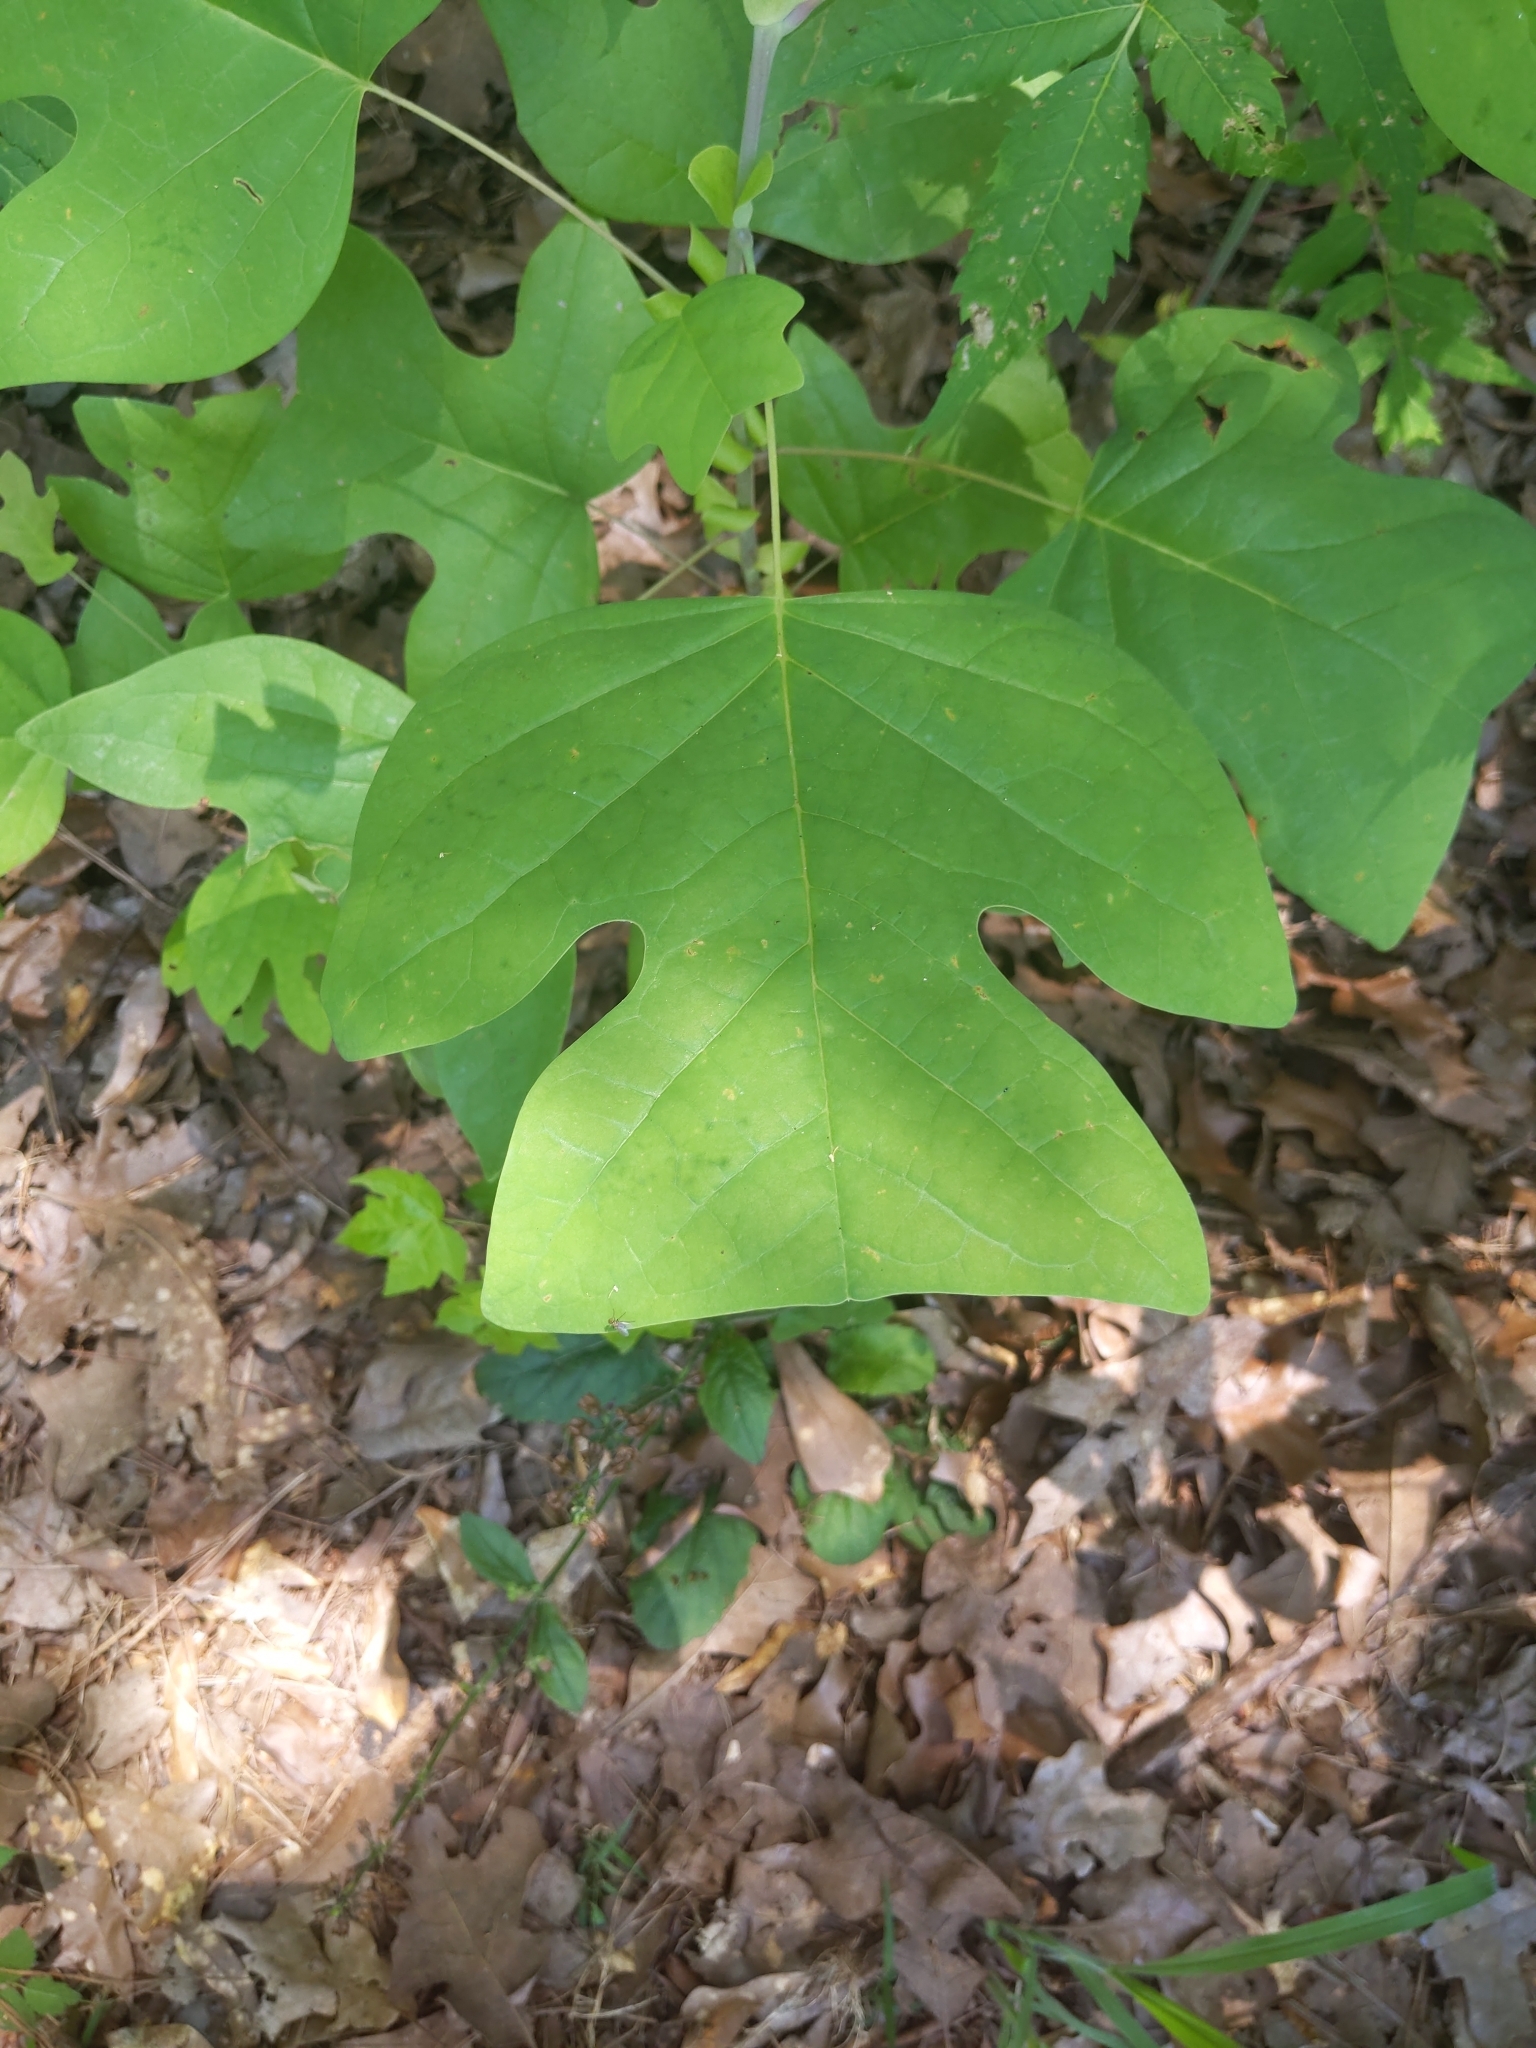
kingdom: Plantae
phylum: Tracheophyta
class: Magnoliopsida
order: Magnoliales
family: Magnoliaceae
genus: Liriodendron
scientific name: Liriodendron tulipifera
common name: Tulip tree
